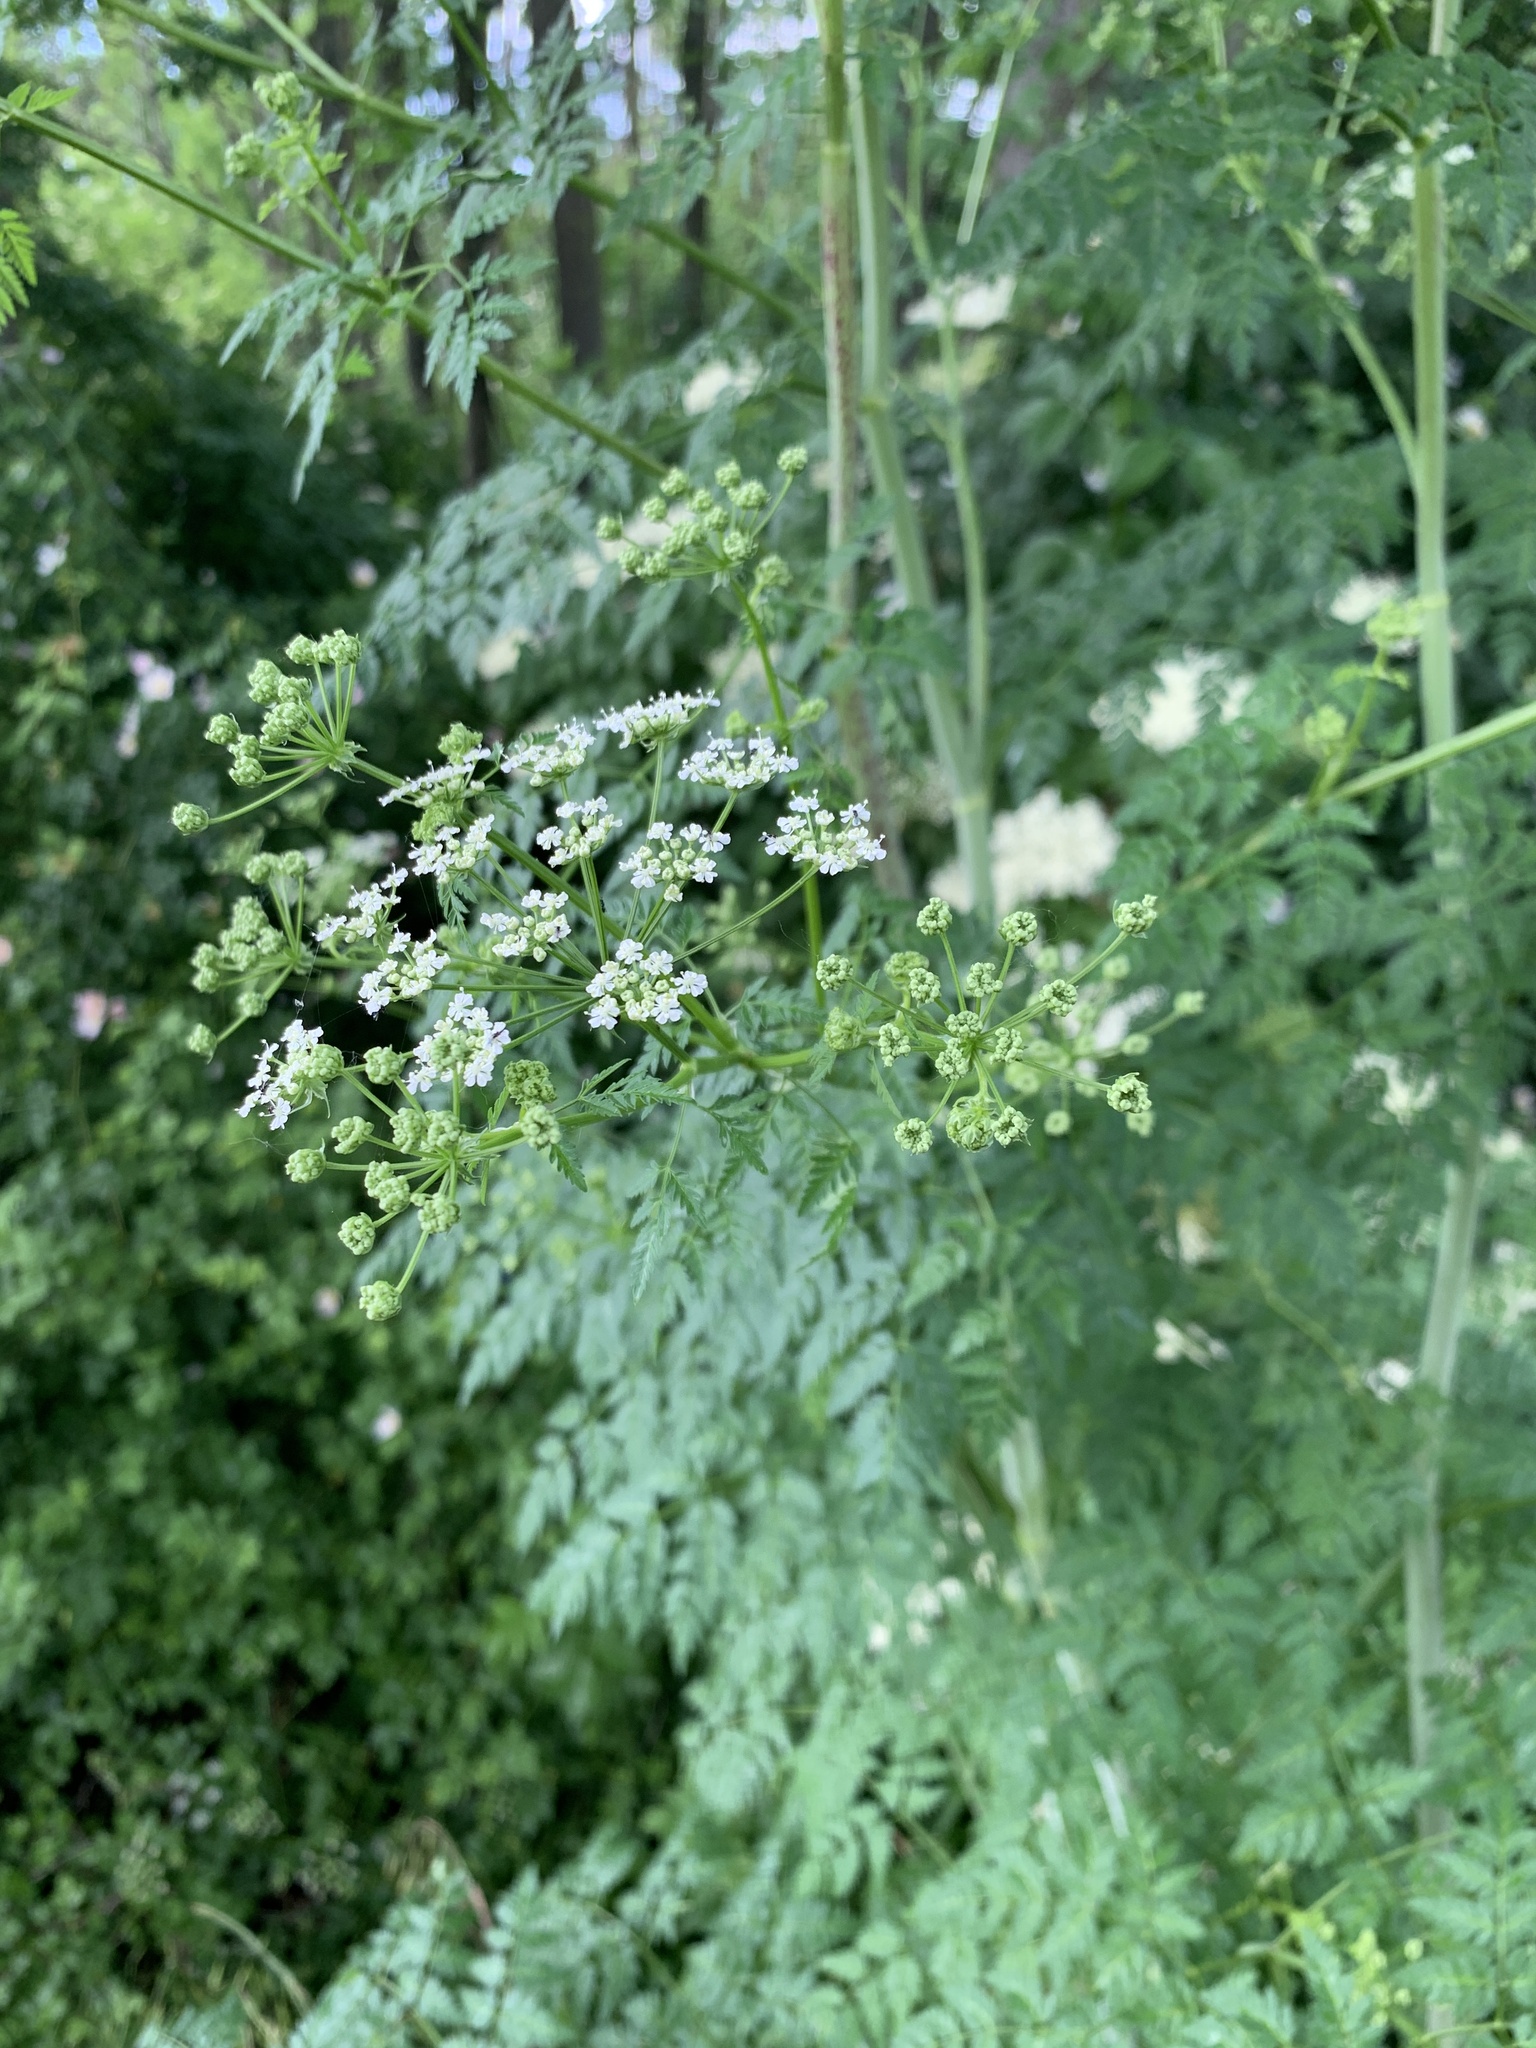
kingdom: Plantae
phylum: Tracheophyta
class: Magnoliopsida
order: Apiales
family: Apiaceae
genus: Conium
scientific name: Conium maculatum
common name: Hemlock
